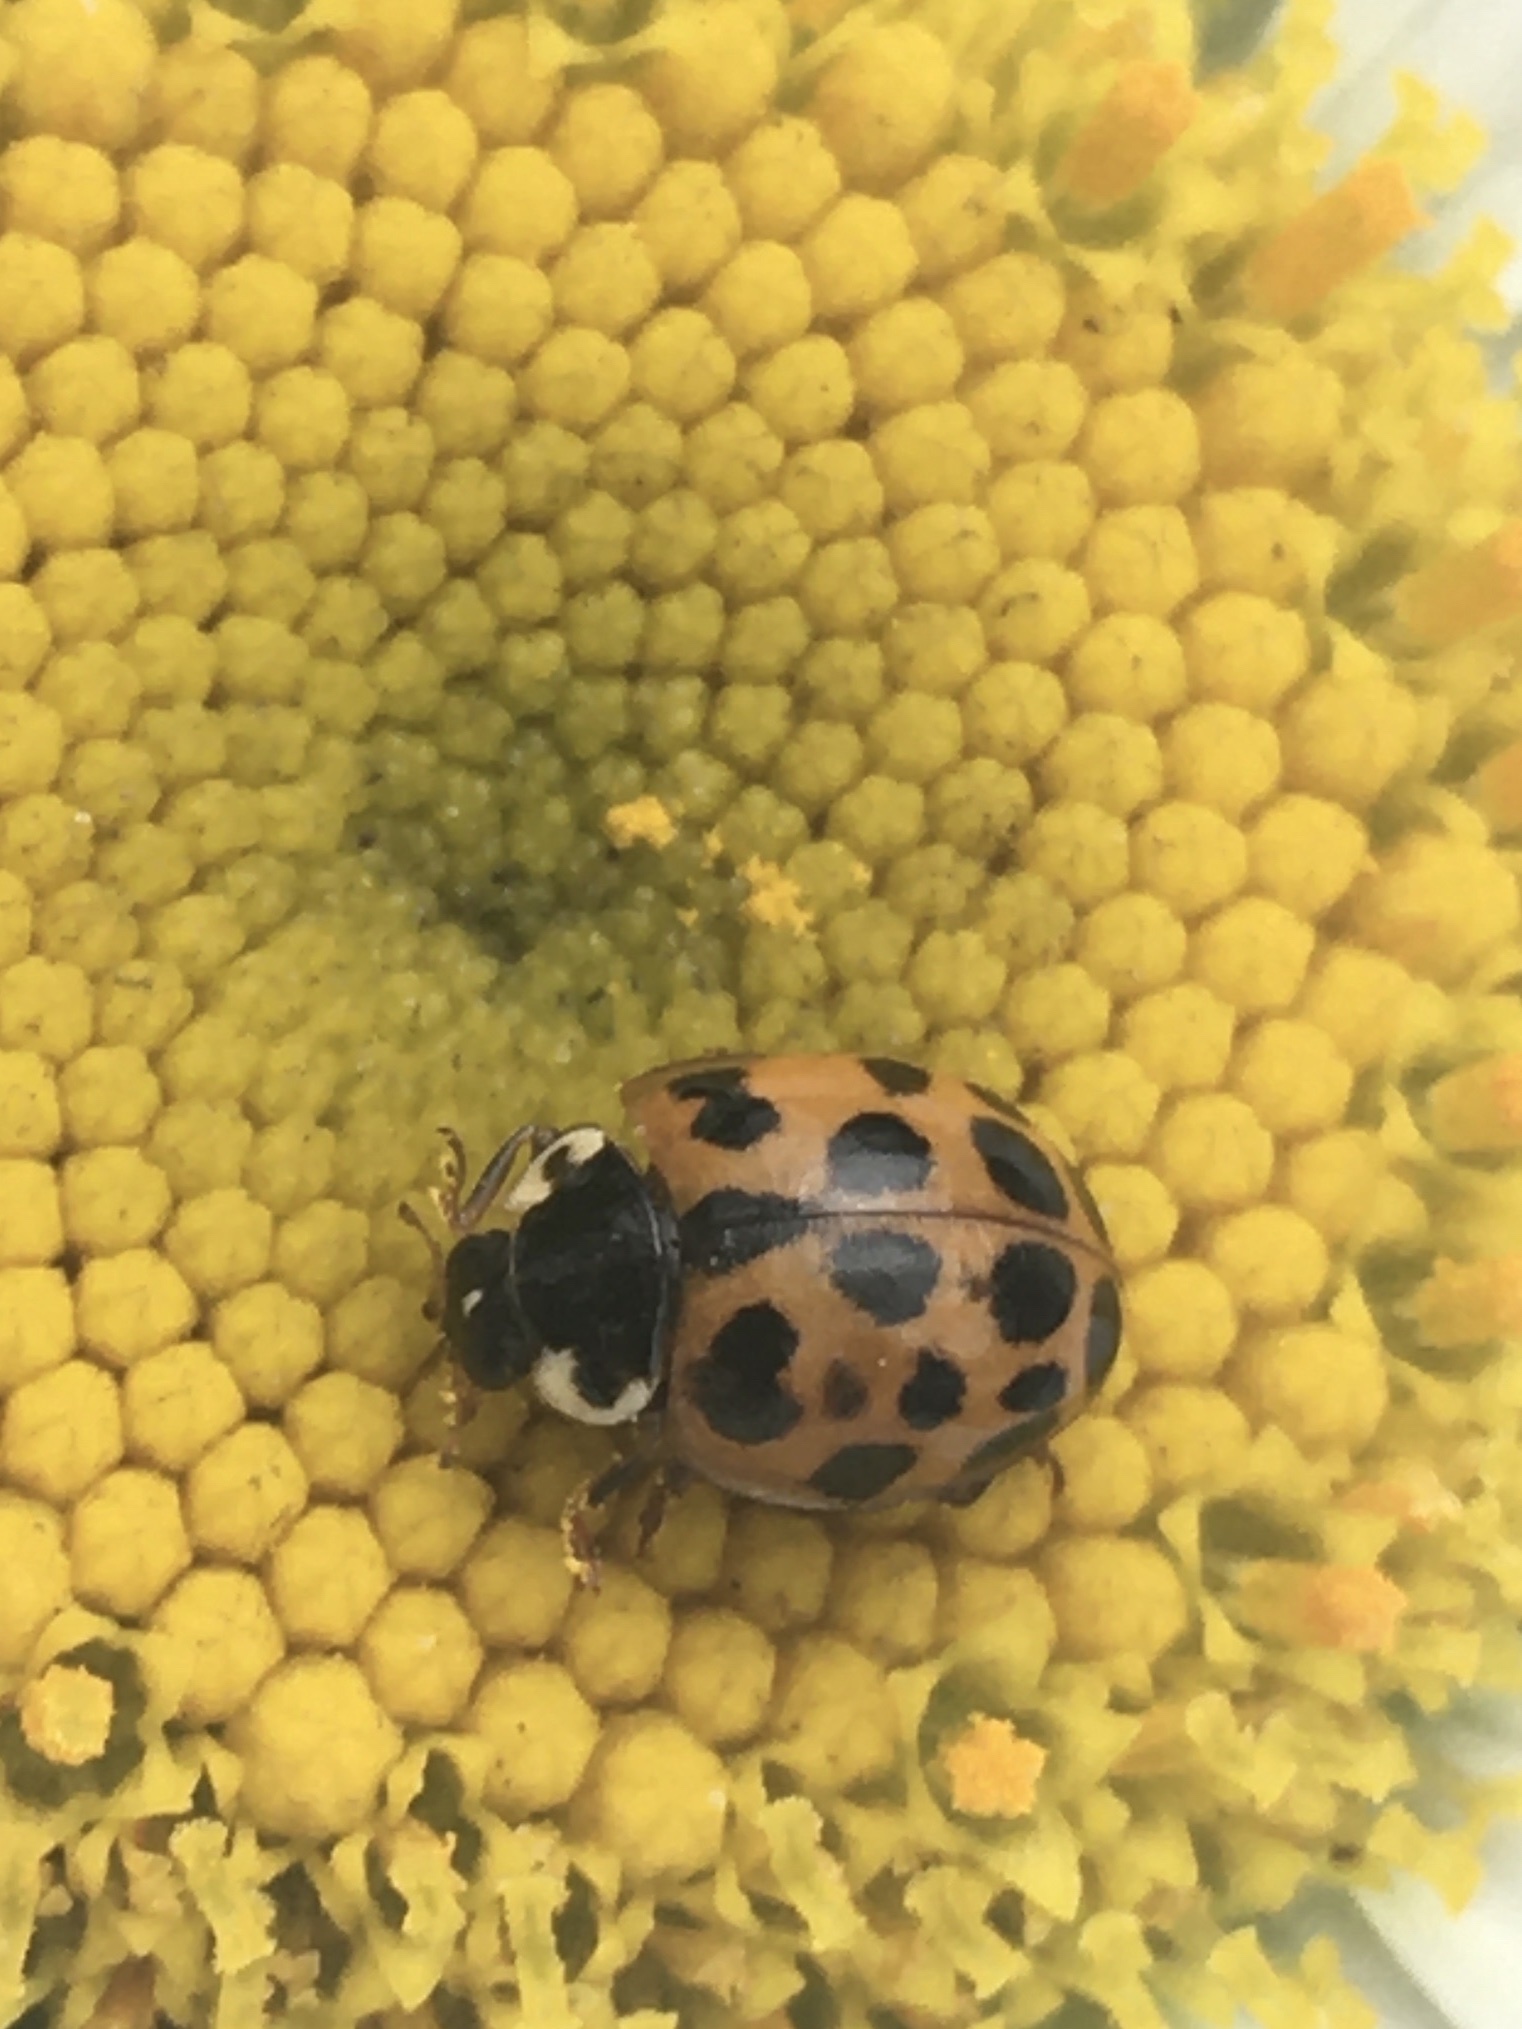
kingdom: Animalia
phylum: Arthropoda
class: Insecta
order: Coleoptera
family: Coccinellidae
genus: Harmonia
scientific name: Harmonia axyridis
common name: Harlequin ladybird
